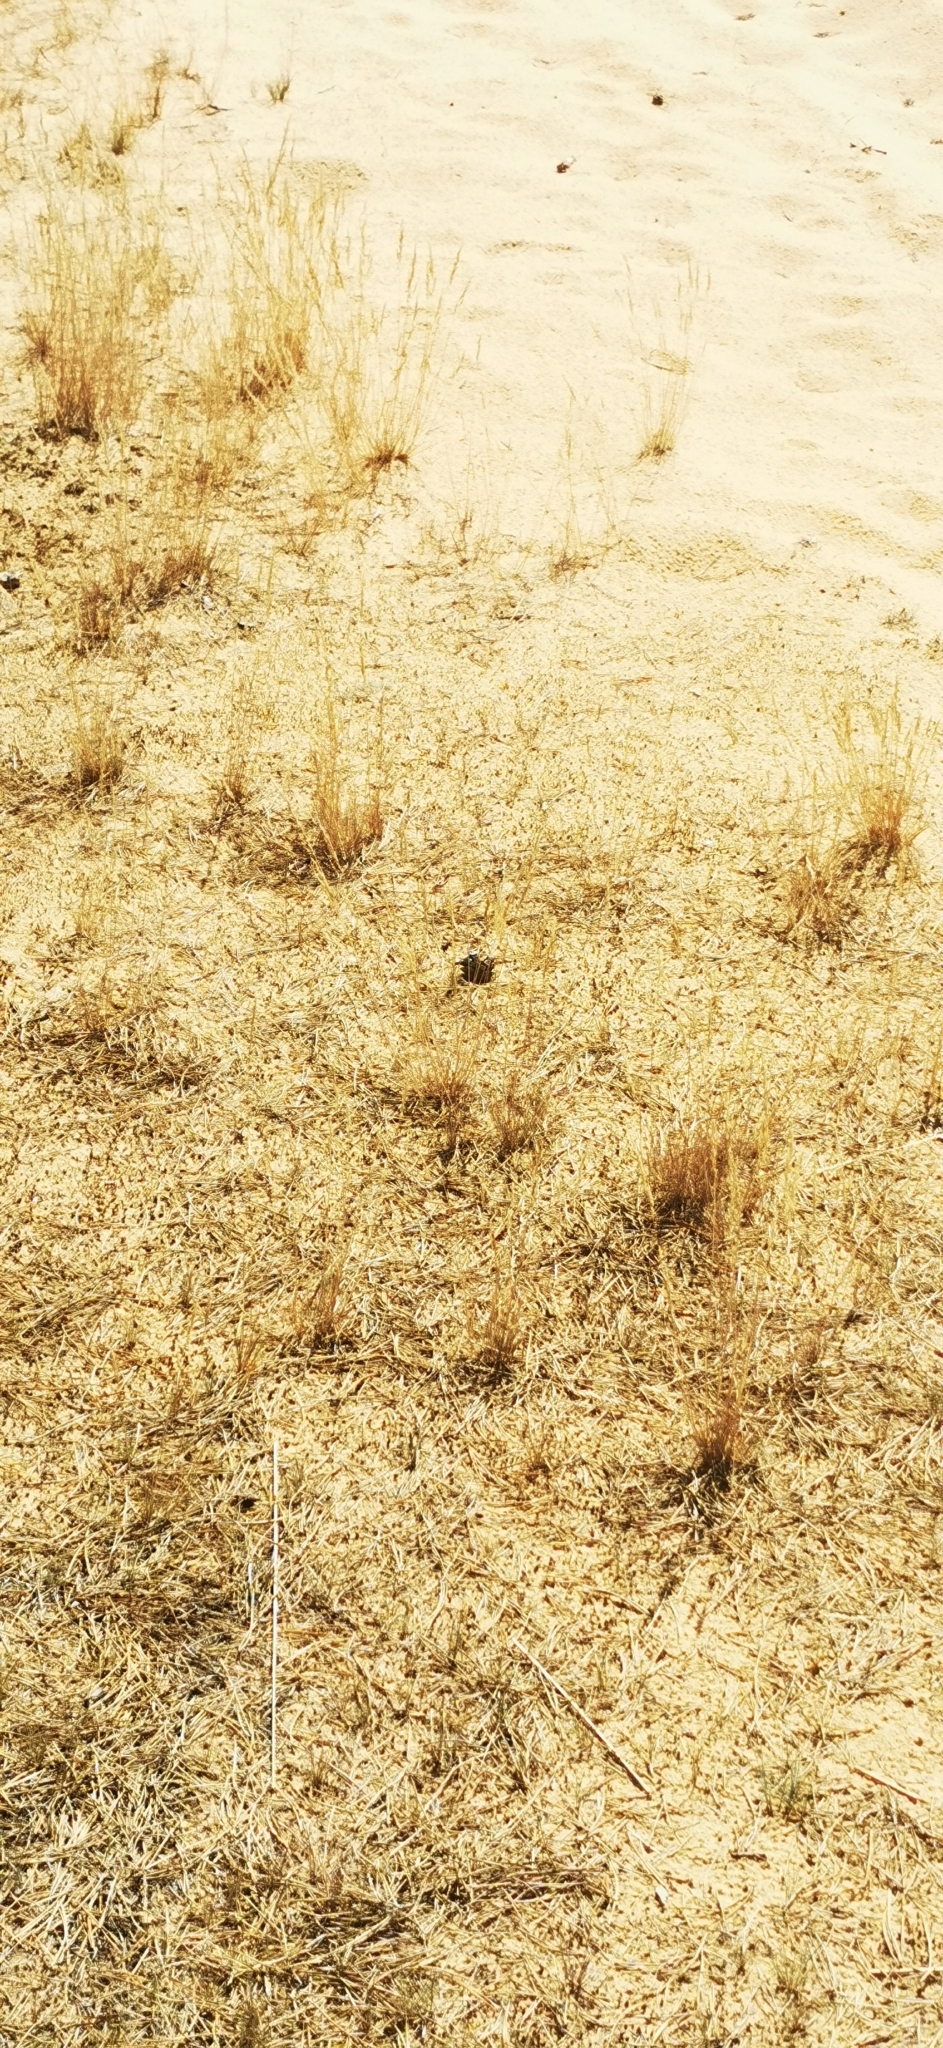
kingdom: Plantae
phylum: Tracheophyta
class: Liliopsida
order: Poales
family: Poaceae
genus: Corynephorus
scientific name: Corynephorus canescens
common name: Grey hair-grass
